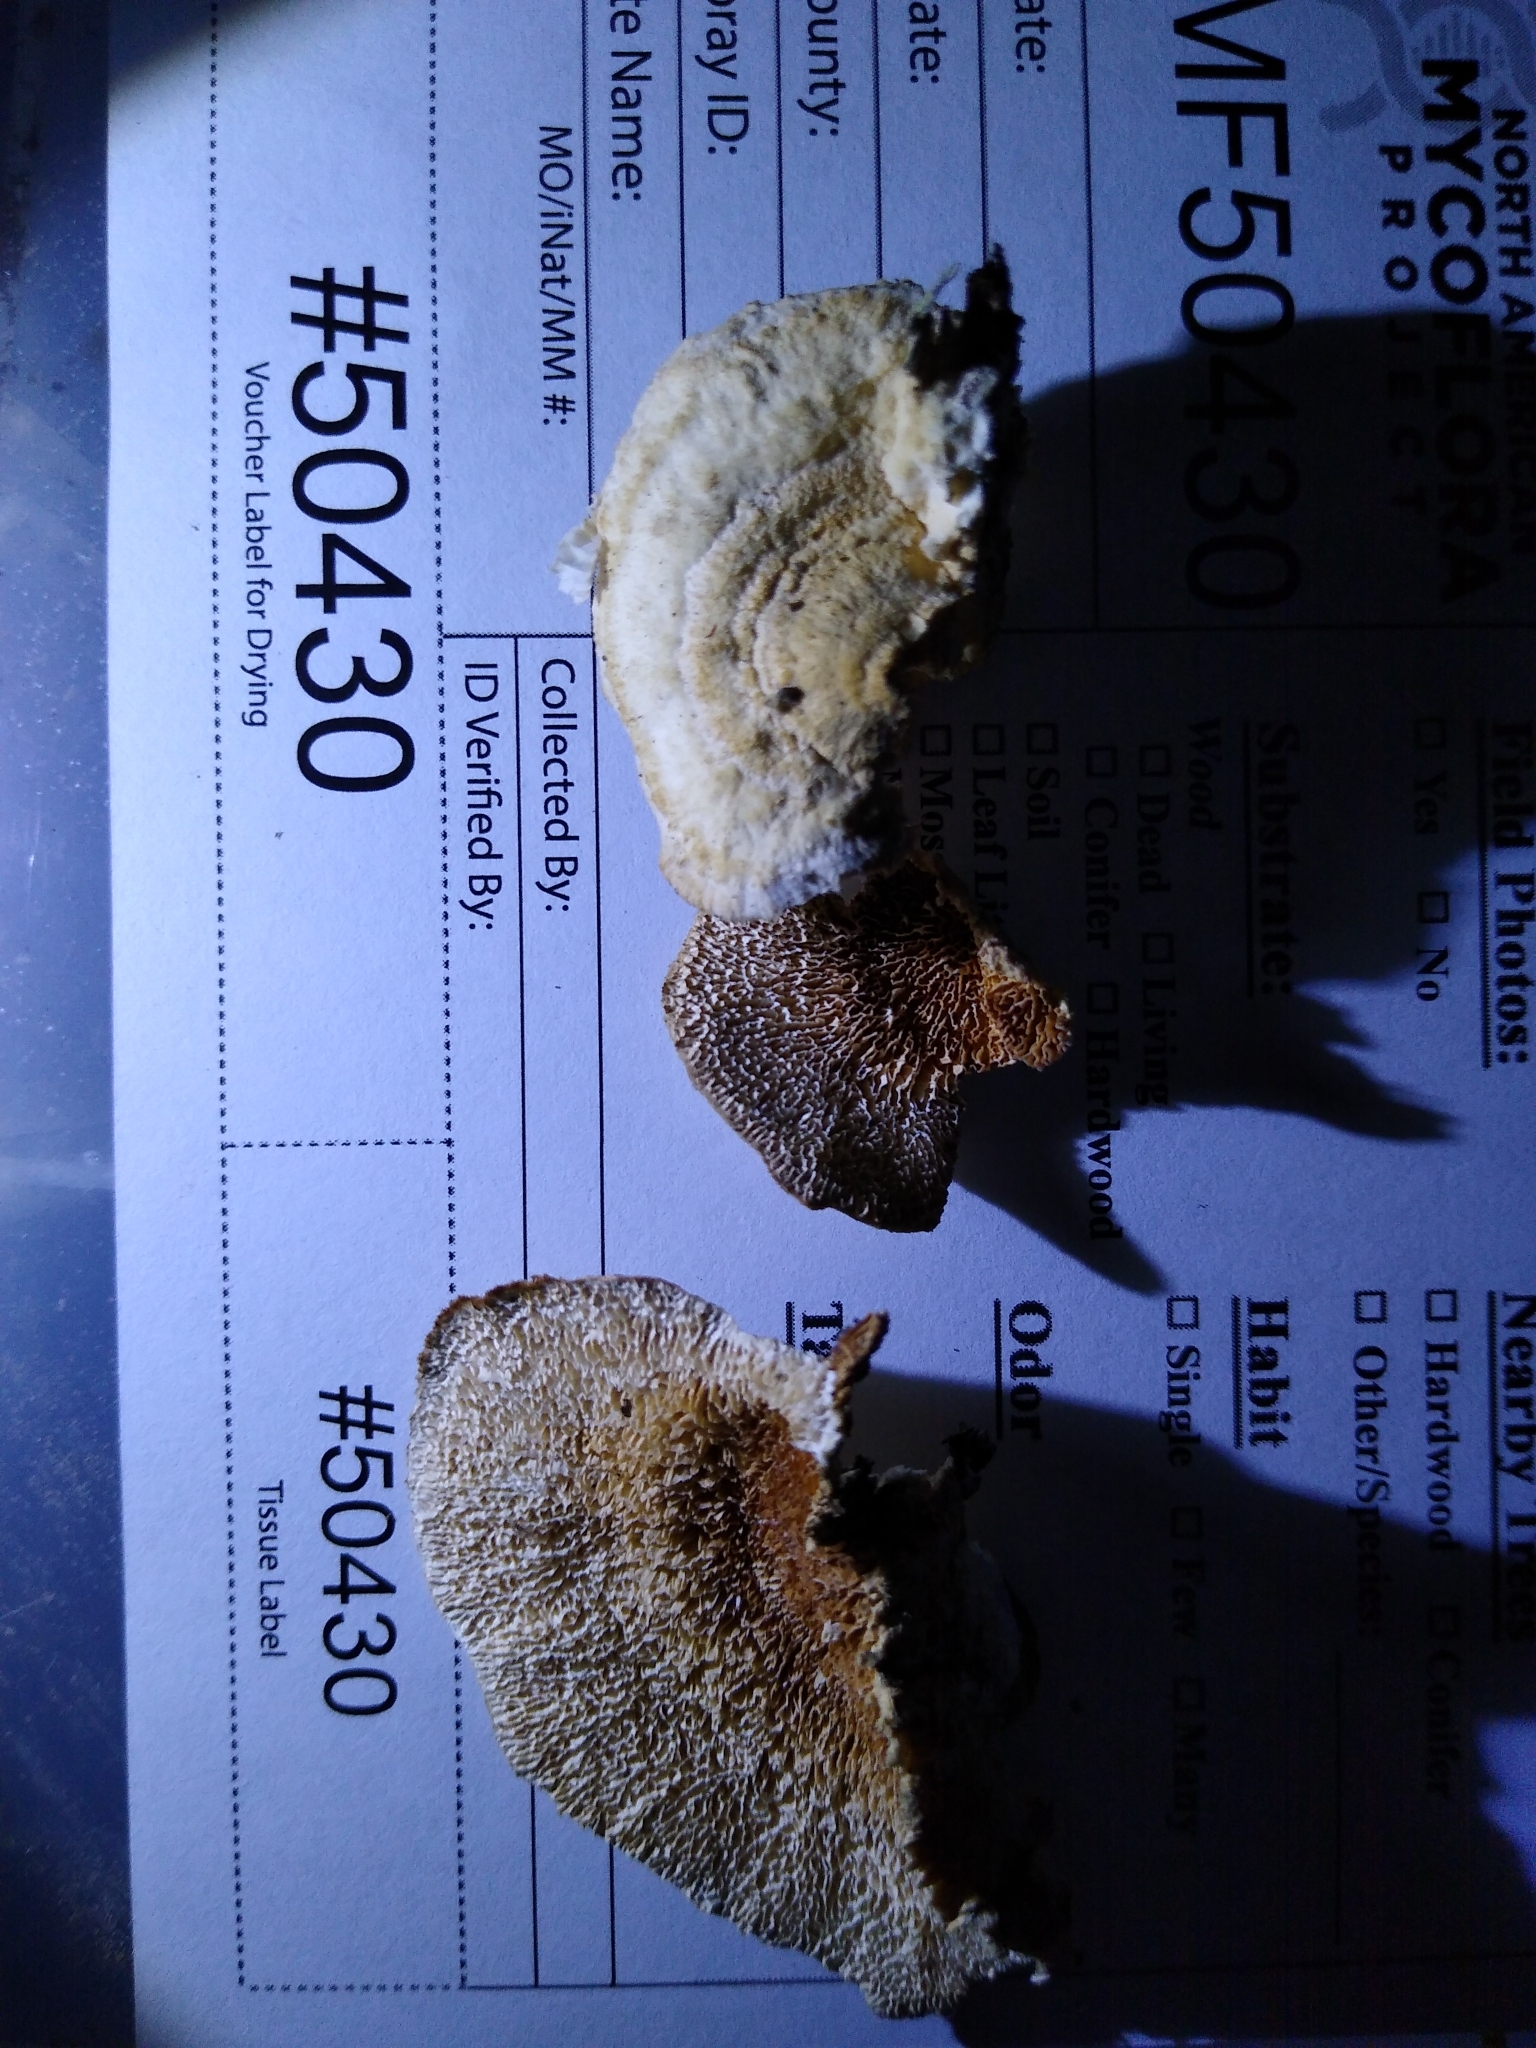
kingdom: Fungi
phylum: Basidiomycota
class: Agaricomycetes
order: Polyporales
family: Irpicaceae
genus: Trametopsis
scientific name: Trametopsis cervina
